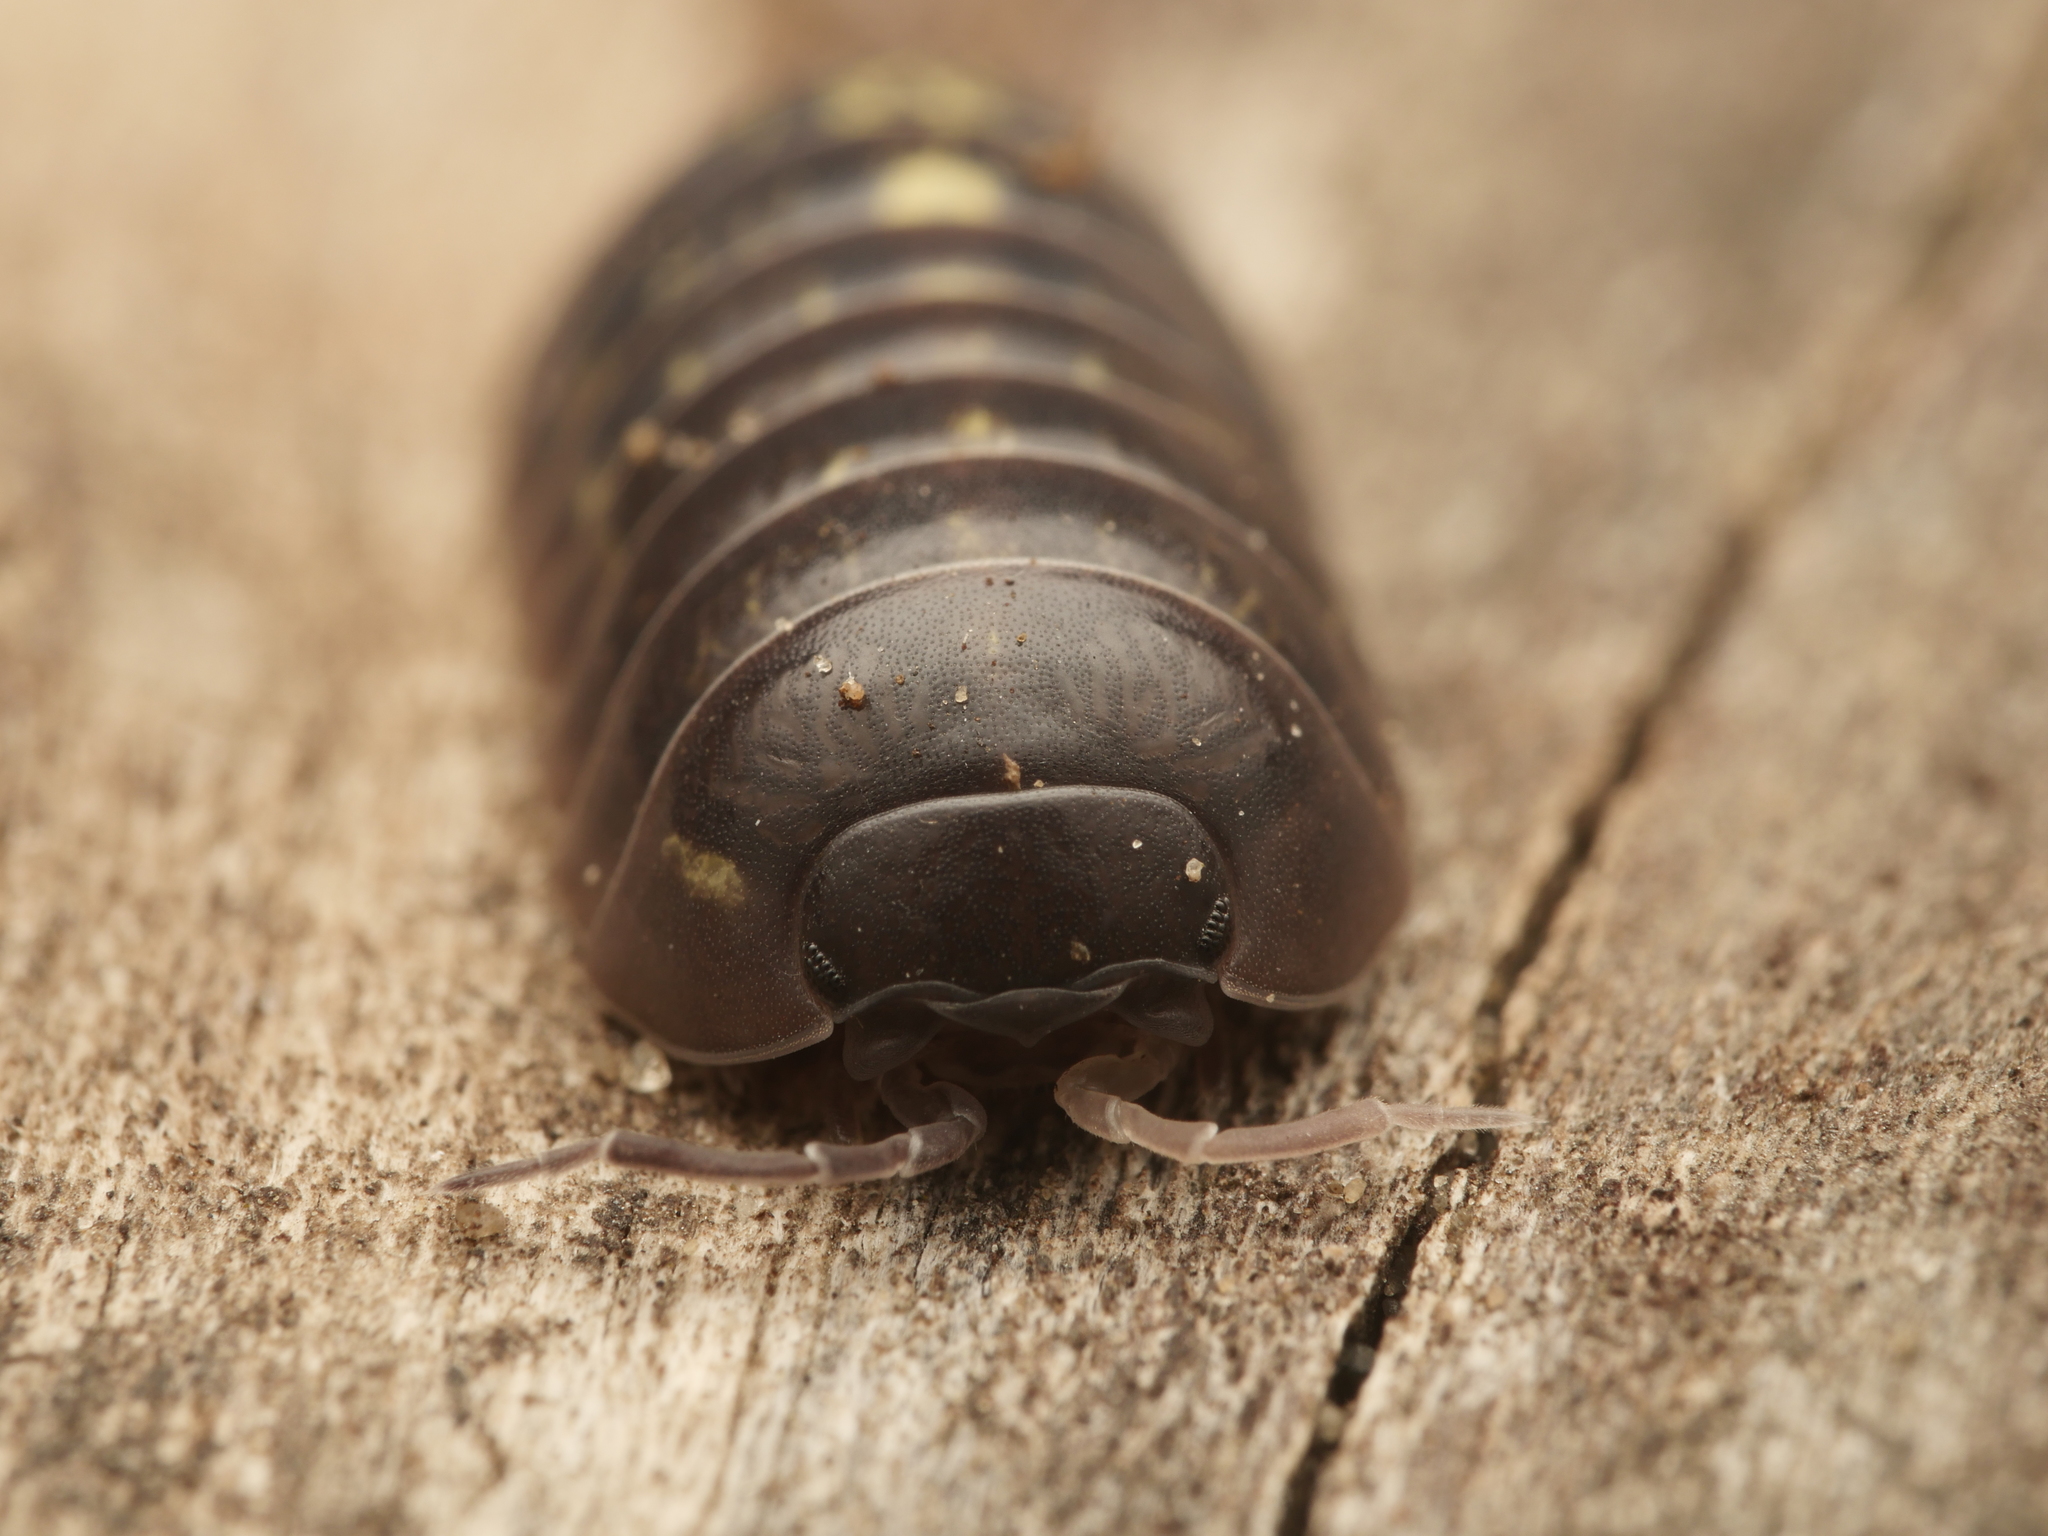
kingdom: Animalia
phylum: Arthropoda
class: Malacostraca
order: Isopoda
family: Armadillidiidae
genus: Armadillidium
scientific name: Armadillidium vulgare
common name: Common pill woodlouse
